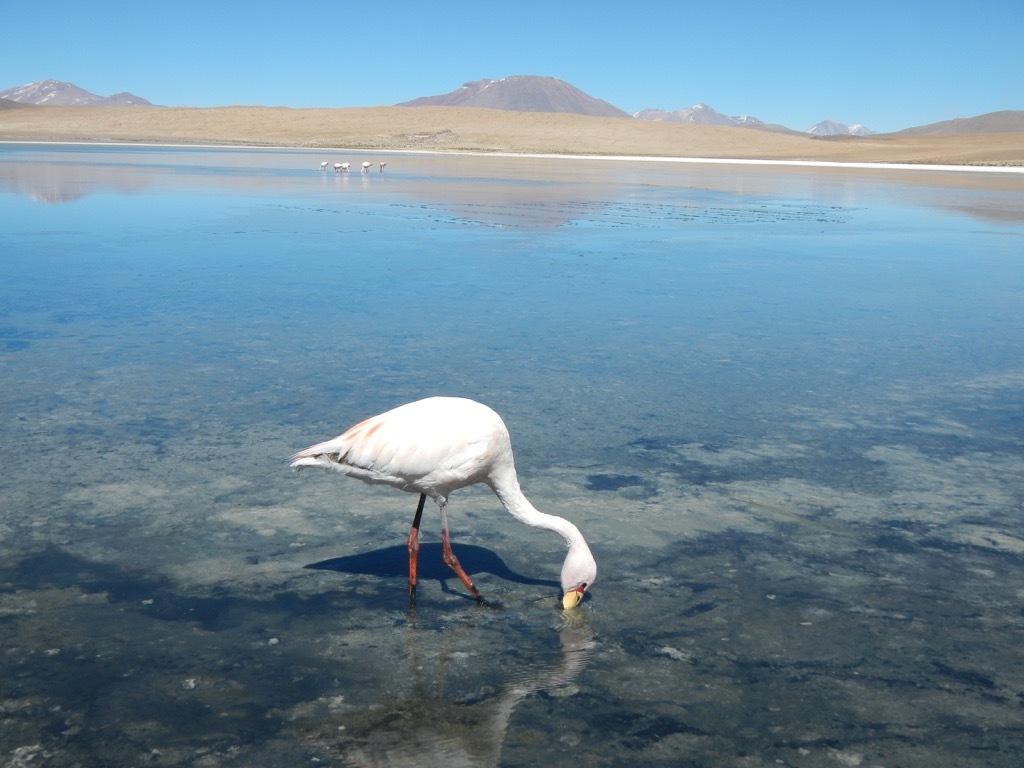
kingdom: Animalia
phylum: Chordata
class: Aves
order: Phoenicopteriformes
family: Phoenicopteridae
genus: Phoenicoparrus
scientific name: Phoenicoparrus jamesi
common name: James's flamingo
